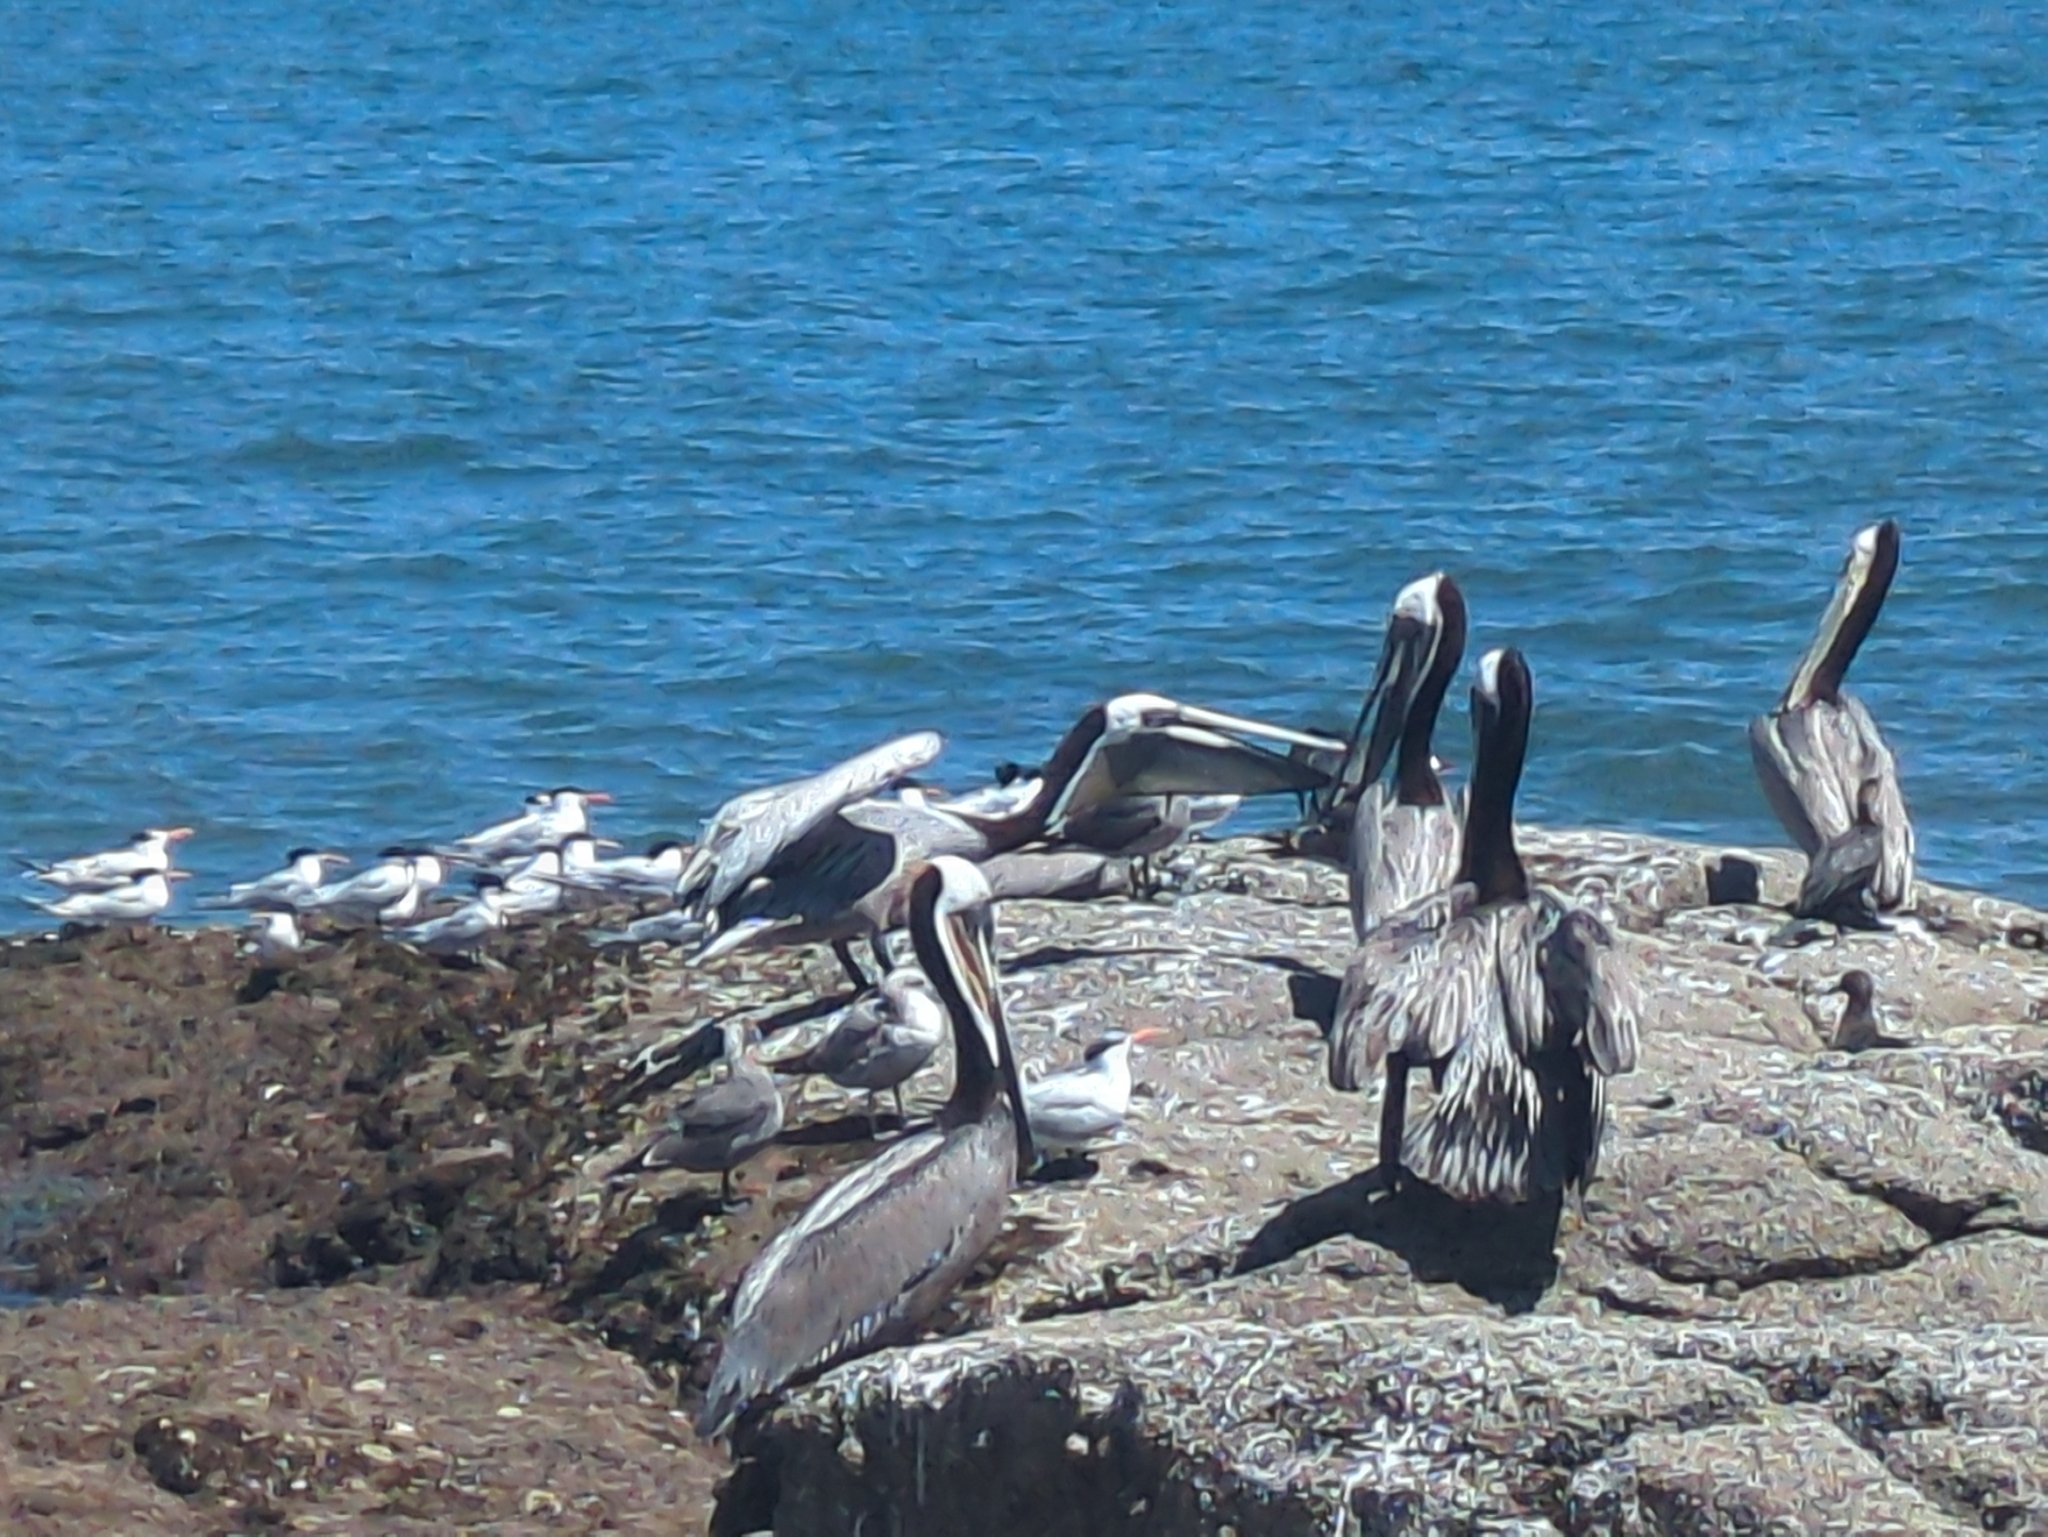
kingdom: Animalia
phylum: Chordata
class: Aves
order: Pelecaniformes
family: Pelecanidae
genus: Pelecanus
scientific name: Pelecanus occidentalis
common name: Brown pelican
